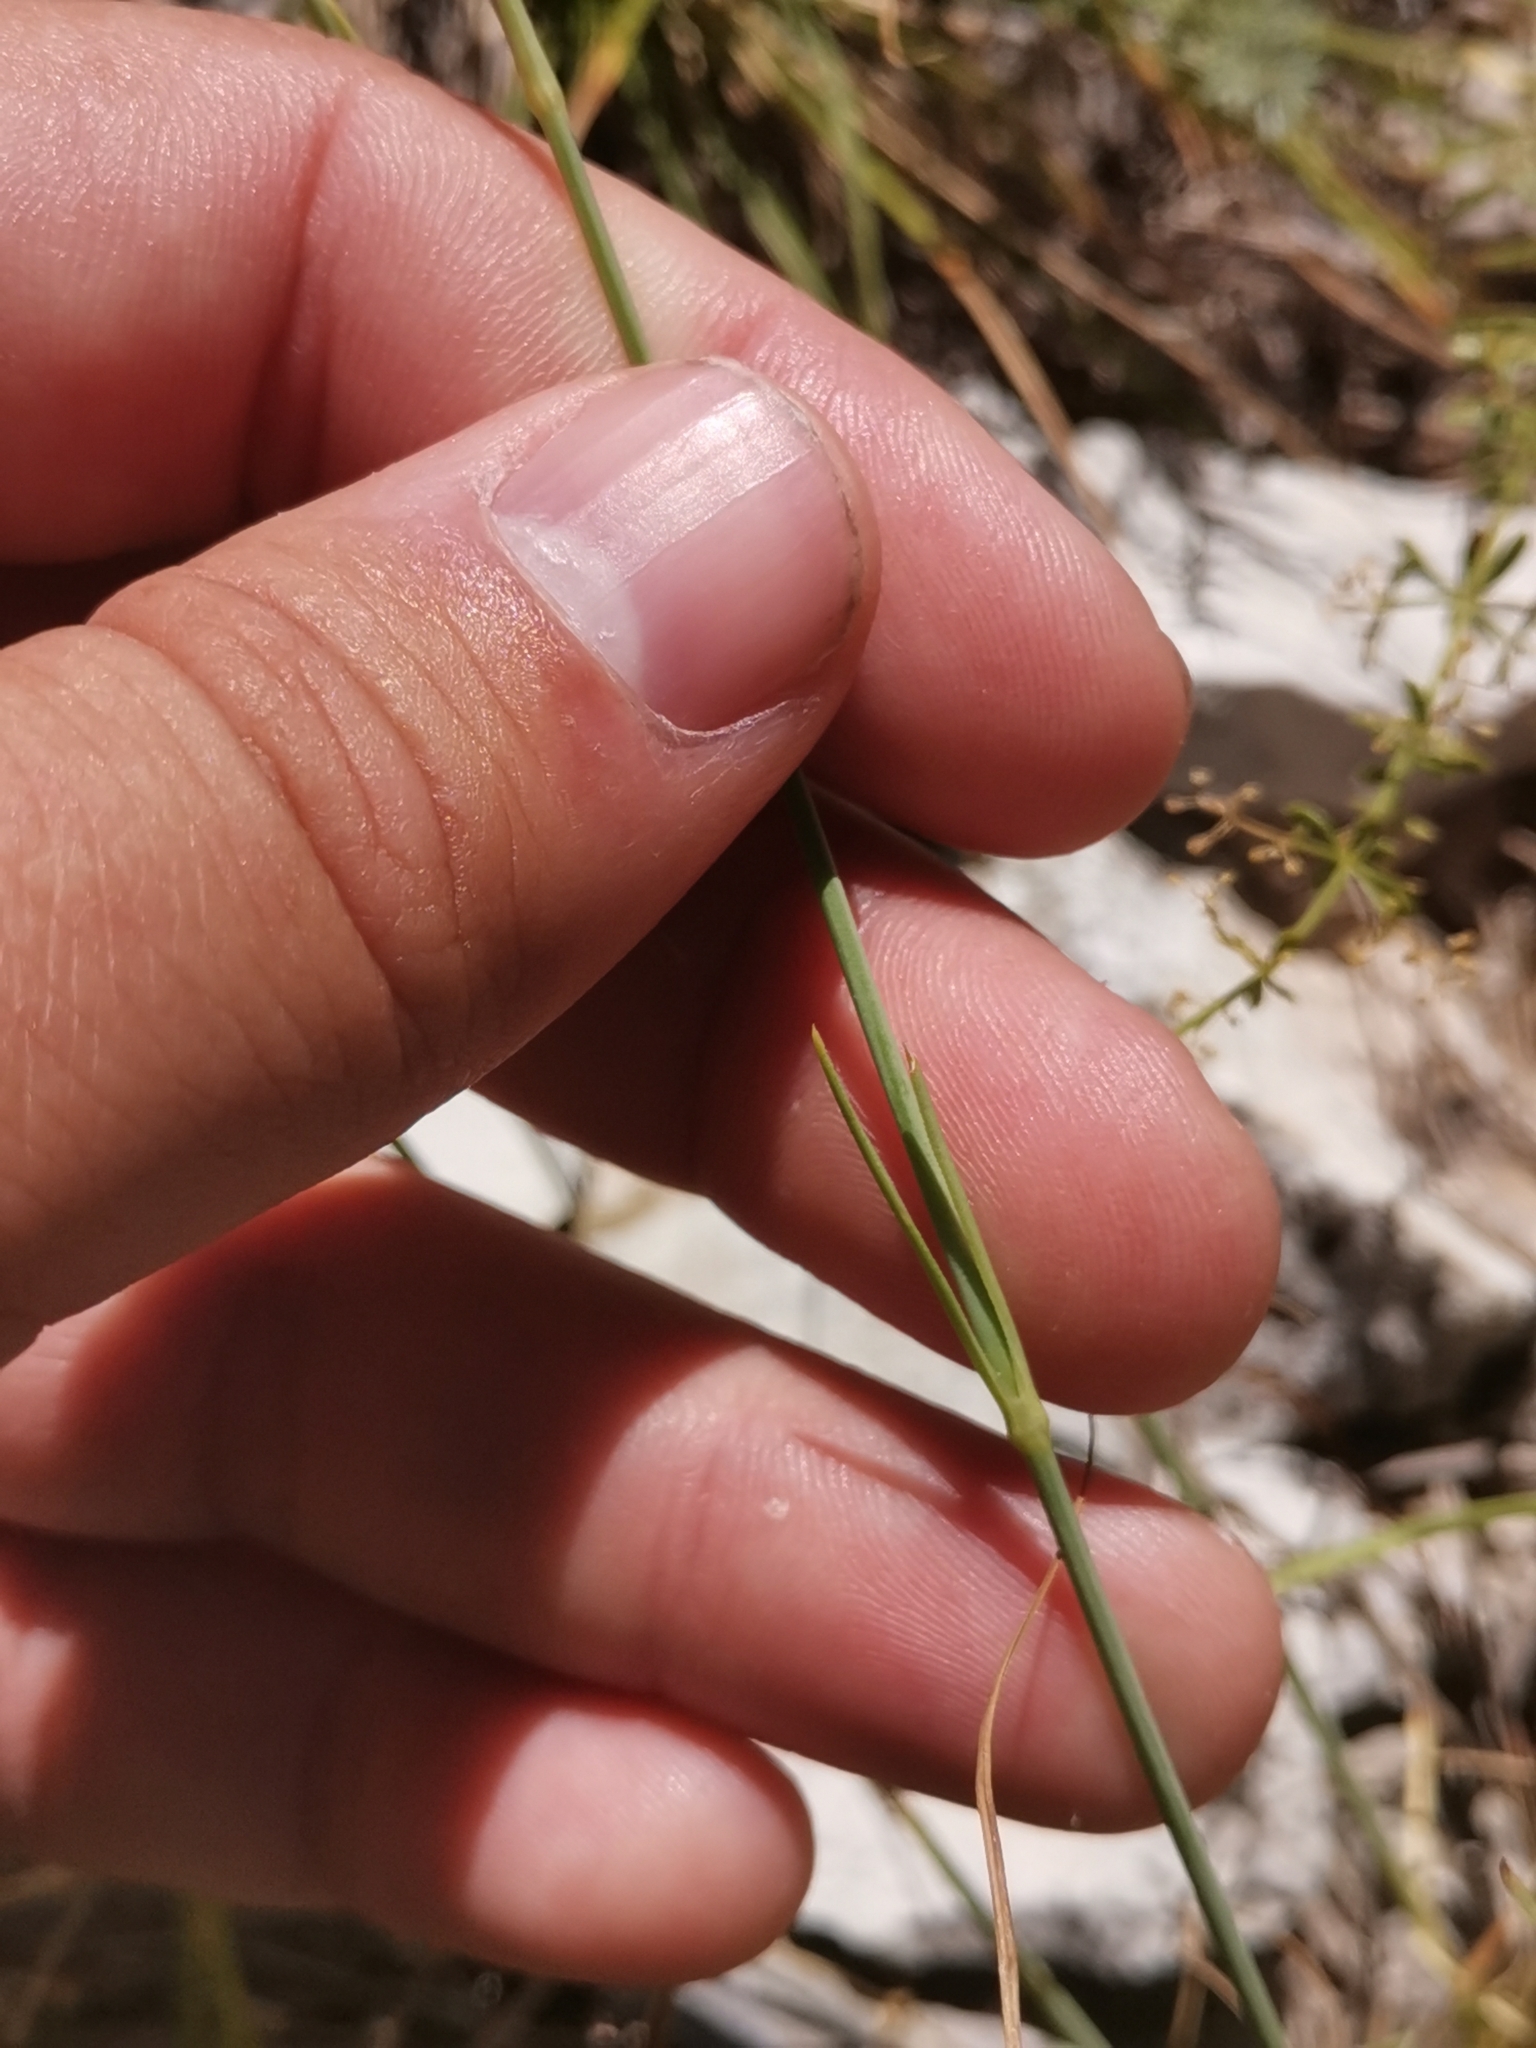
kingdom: Plantae
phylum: Tracheophyta
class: Magnoliopsida
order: Caryophyllales
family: Caryophyllaceae
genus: Dianthus
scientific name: Dianthus ciliatus
